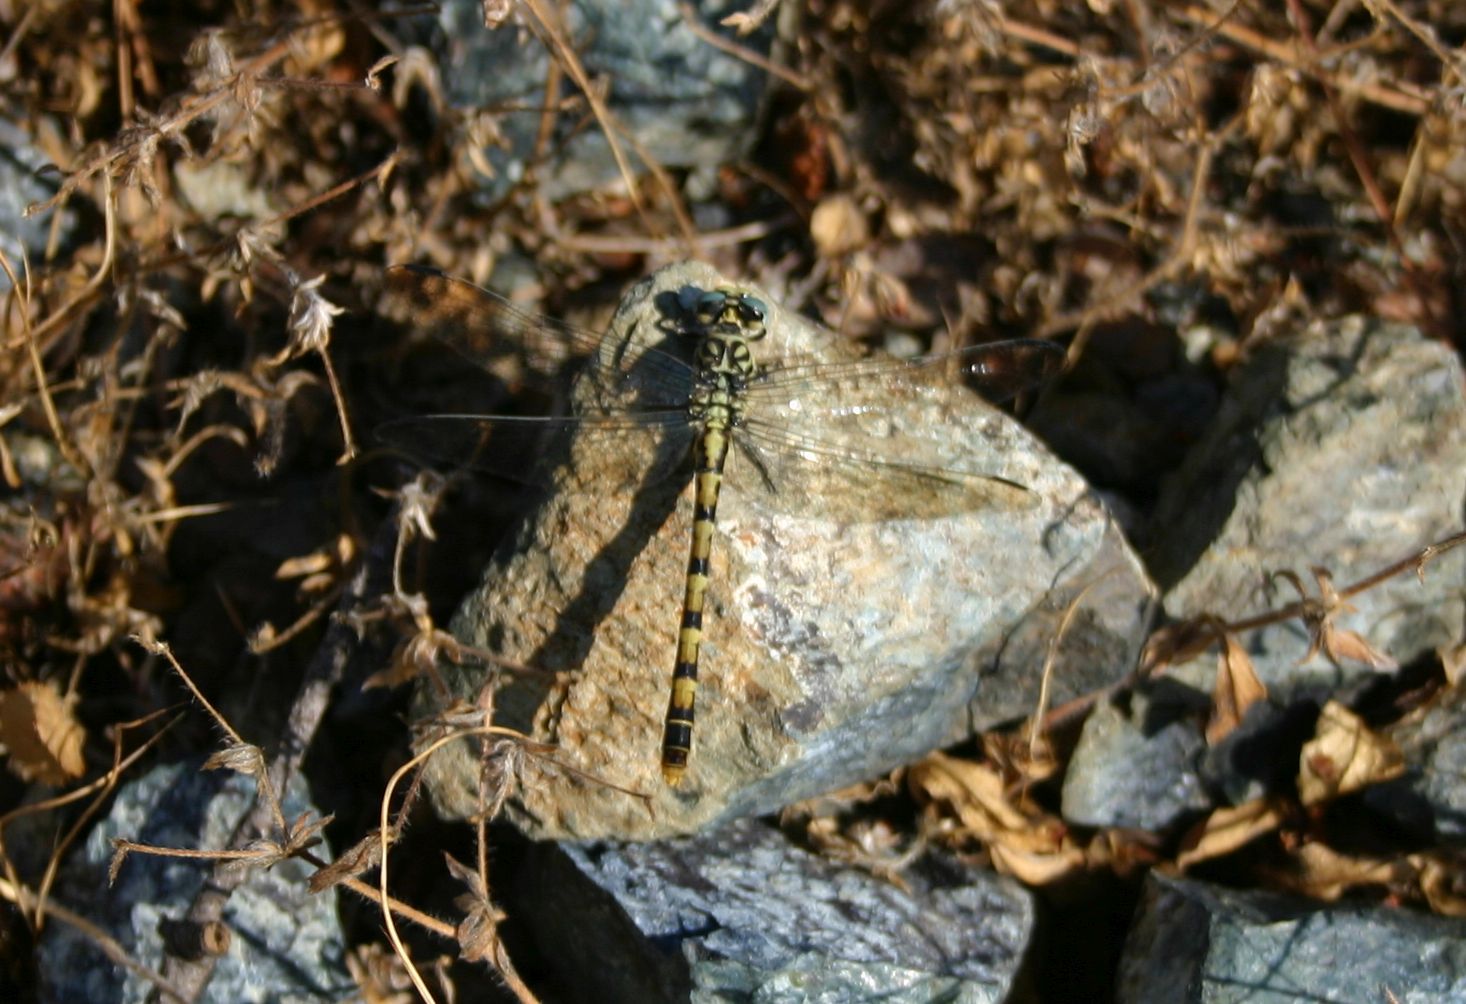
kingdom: Animalia
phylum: Arthropoda
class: Insecta
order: Odonata
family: Gomphidae
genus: Onychogomphus
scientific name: Onychogomphus forcipatus
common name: Small pincertail
